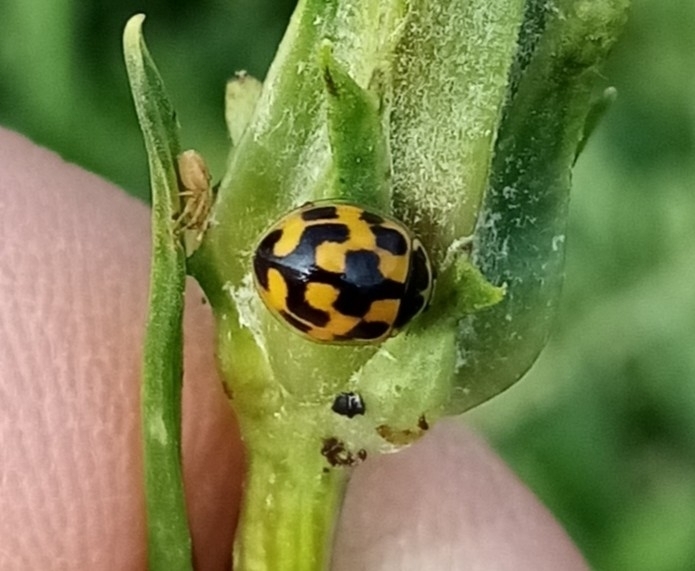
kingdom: Animalia
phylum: Arthropoda
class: Insecta
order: Coleoptera
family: Coccinellidae
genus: Propylaea
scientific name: Propylaea quatuordecimpunctata
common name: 14-spotted ladybird beetle
